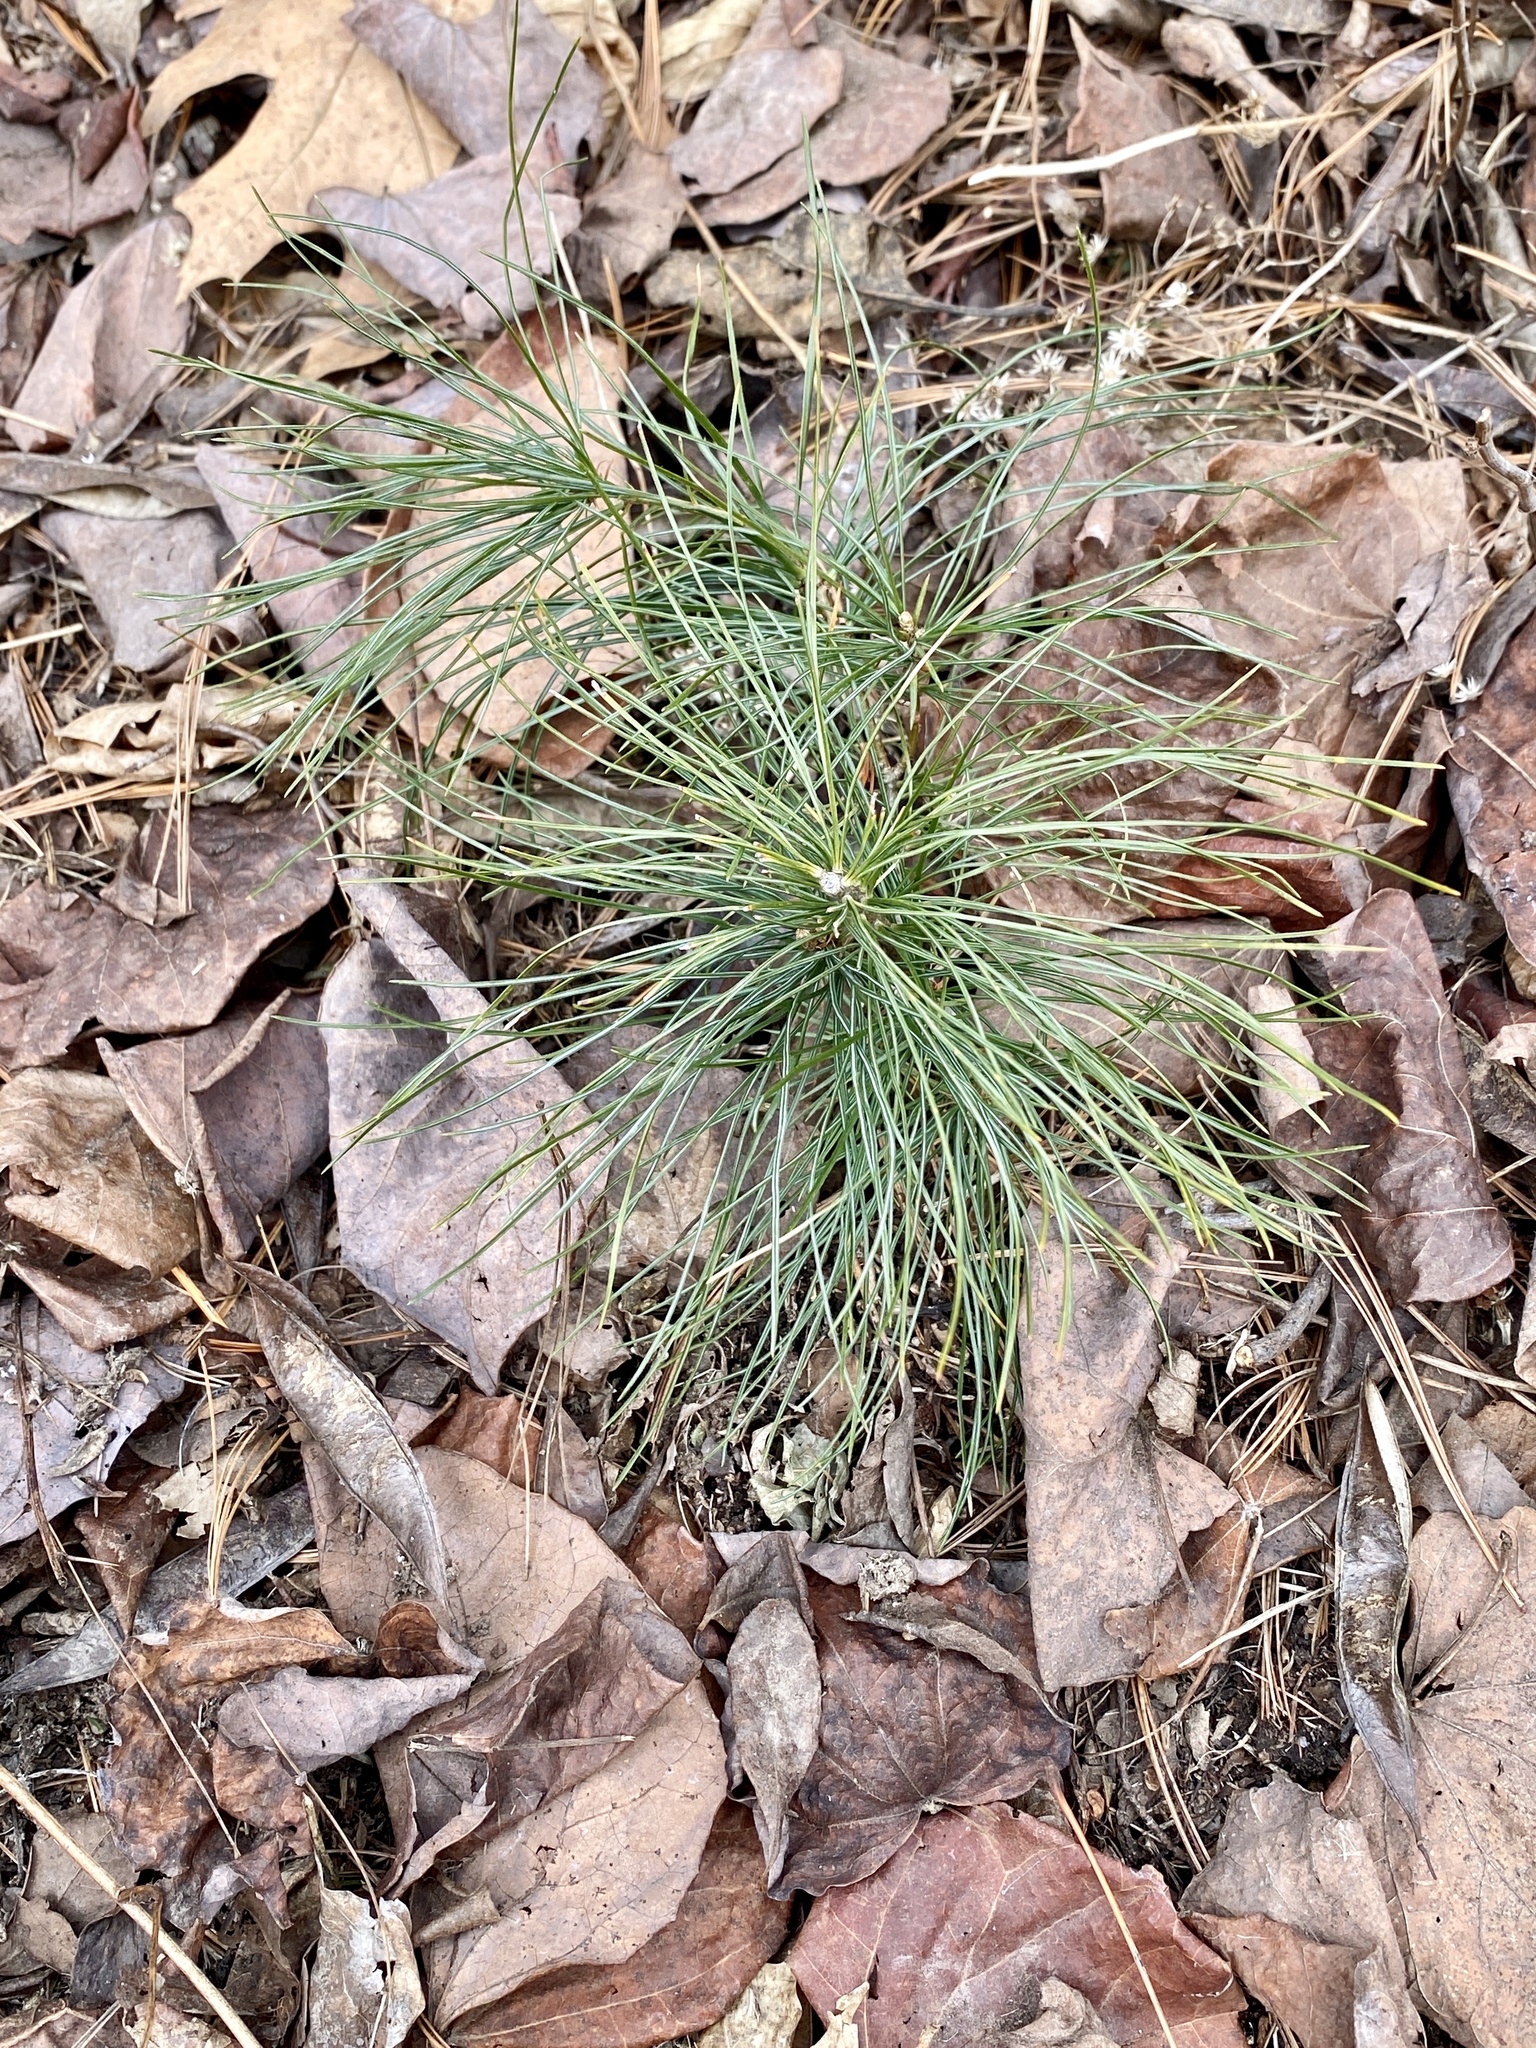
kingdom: Plantae
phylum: Tracheophyta
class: Pinopsida
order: Pinales
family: Pinaceae
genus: Pinus
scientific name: Pinus strobus
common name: Weymouth pine
